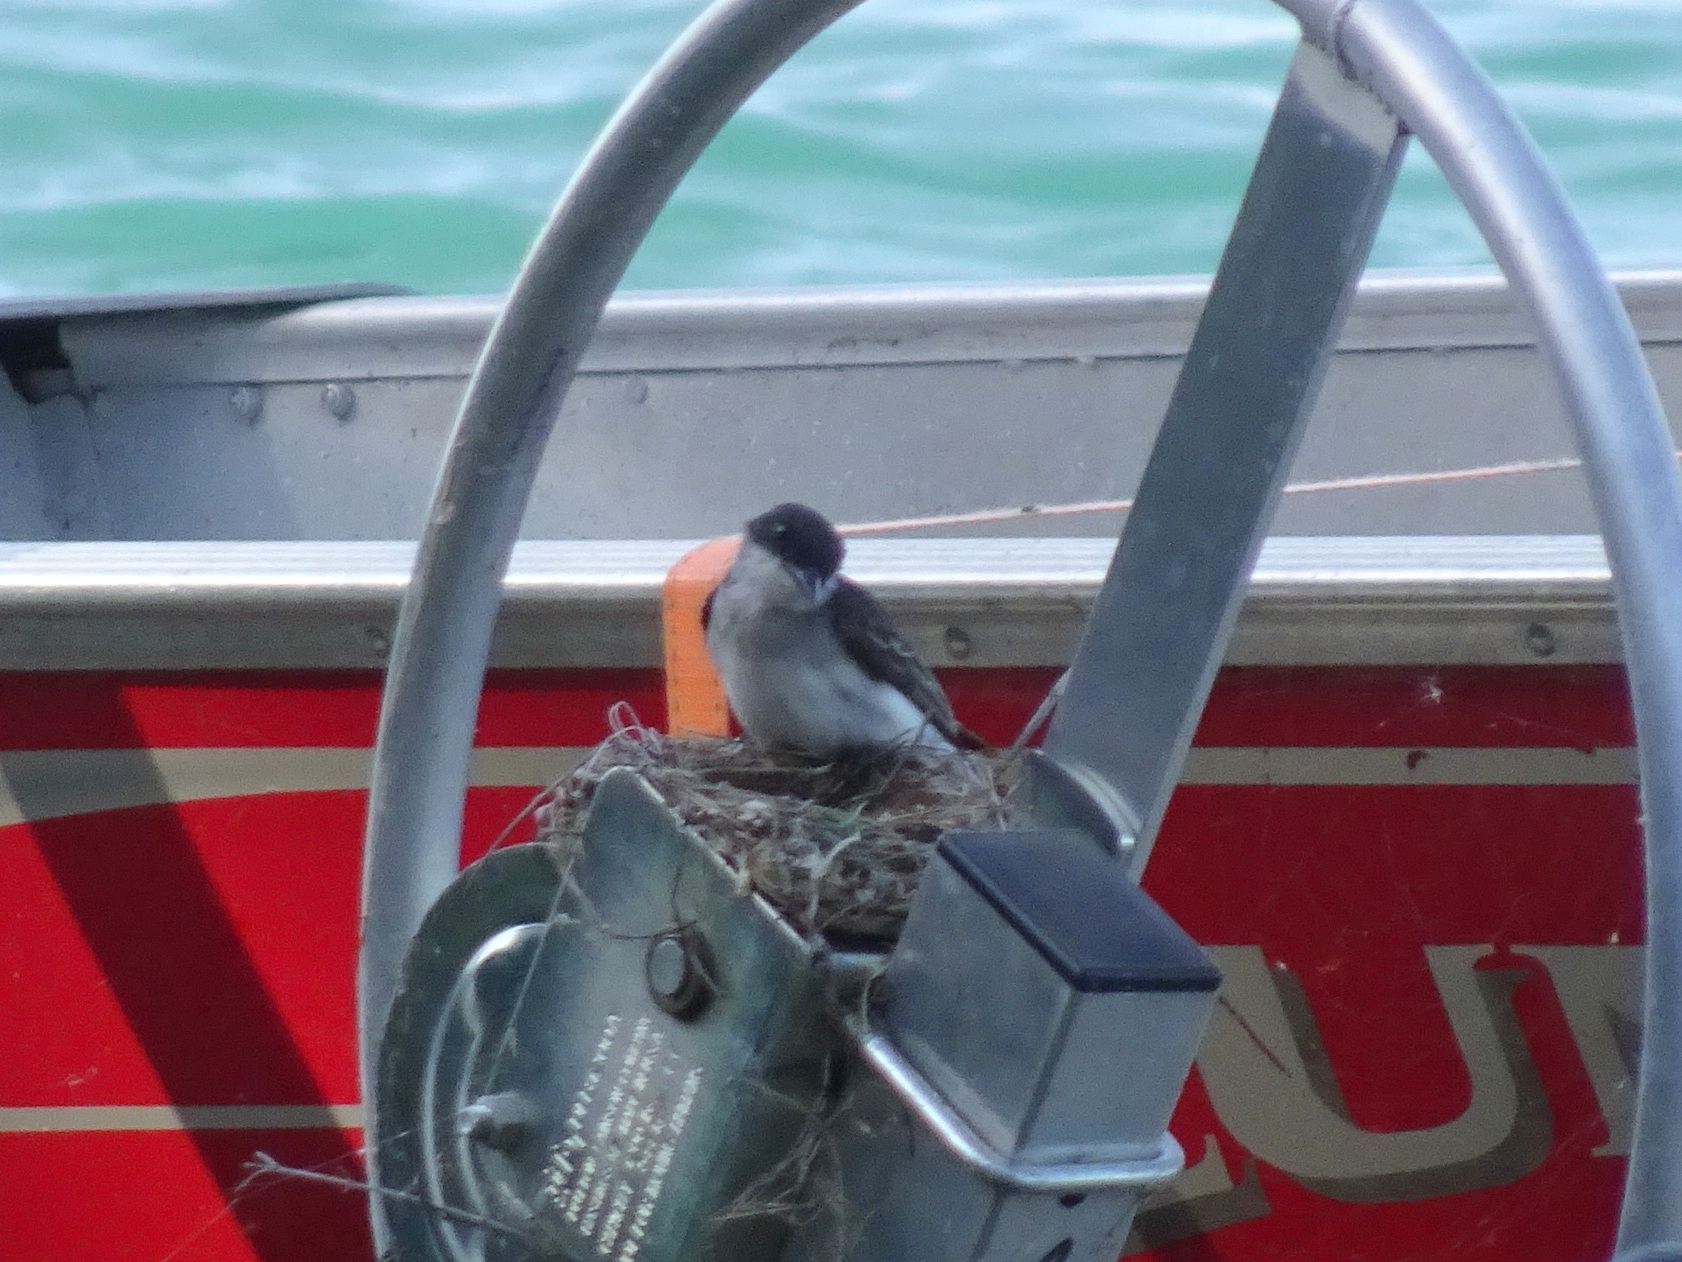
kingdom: Animalia
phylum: Chordata
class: Aves
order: Passeriformes
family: Tyrannidae
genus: Tyrannus
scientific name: Tyrannus tyrannus
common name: Eastern kingbird
